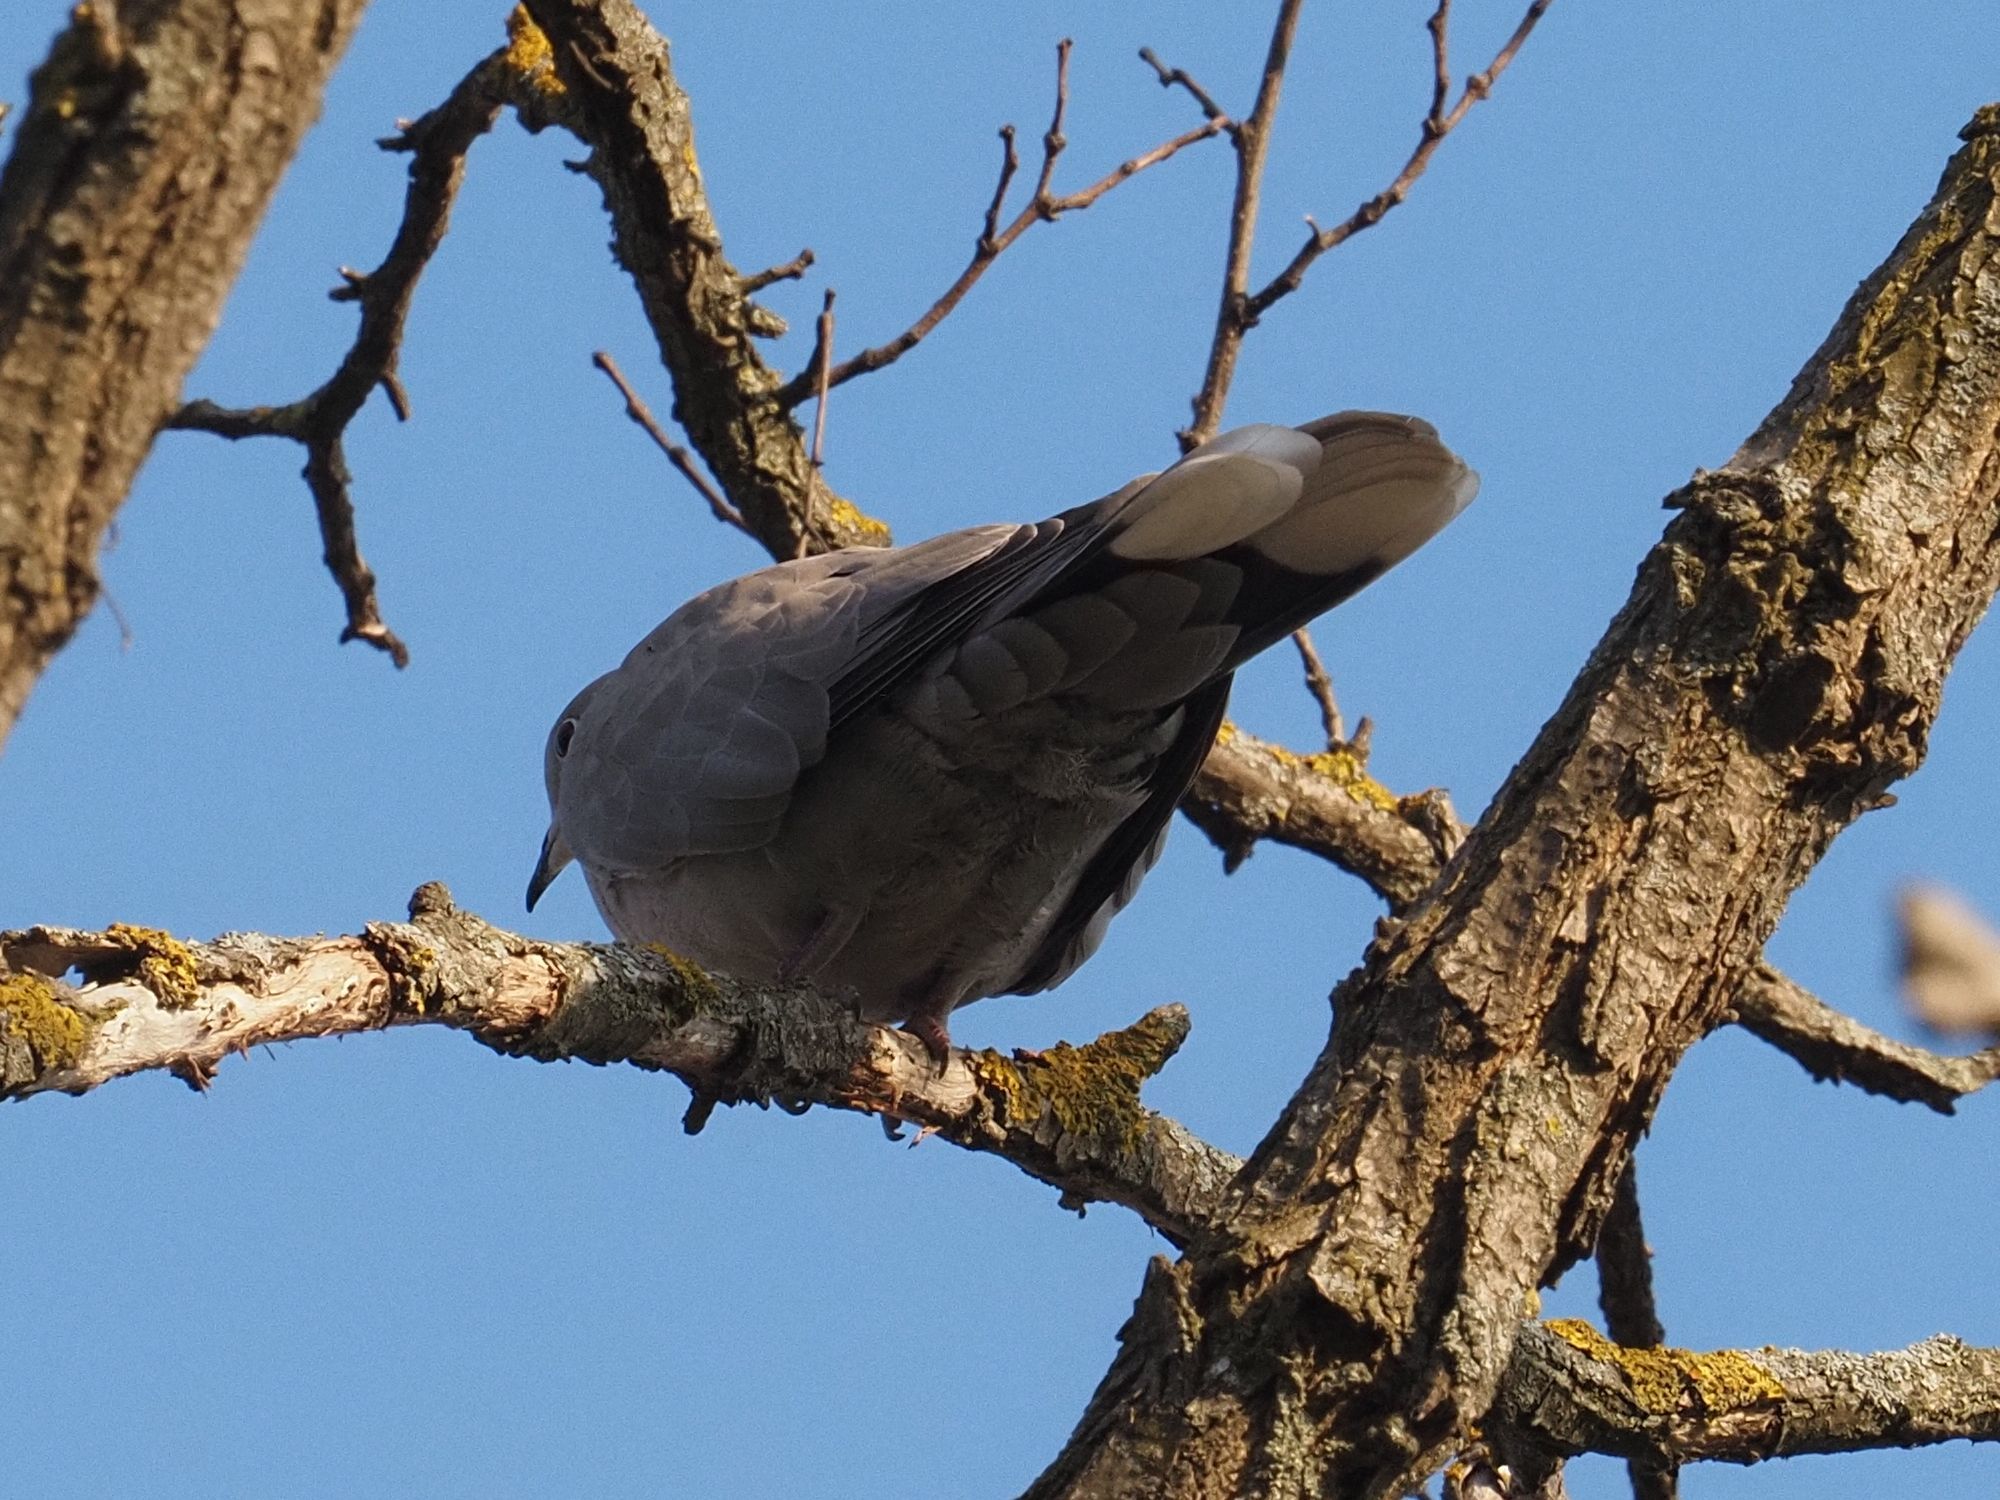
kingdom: Animalia
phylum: Chordata
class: Aves
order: Columbiformes
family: Columbidae
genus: Streptopelia
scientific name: Streptopelia decaocto
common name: Eurasian collared dove
